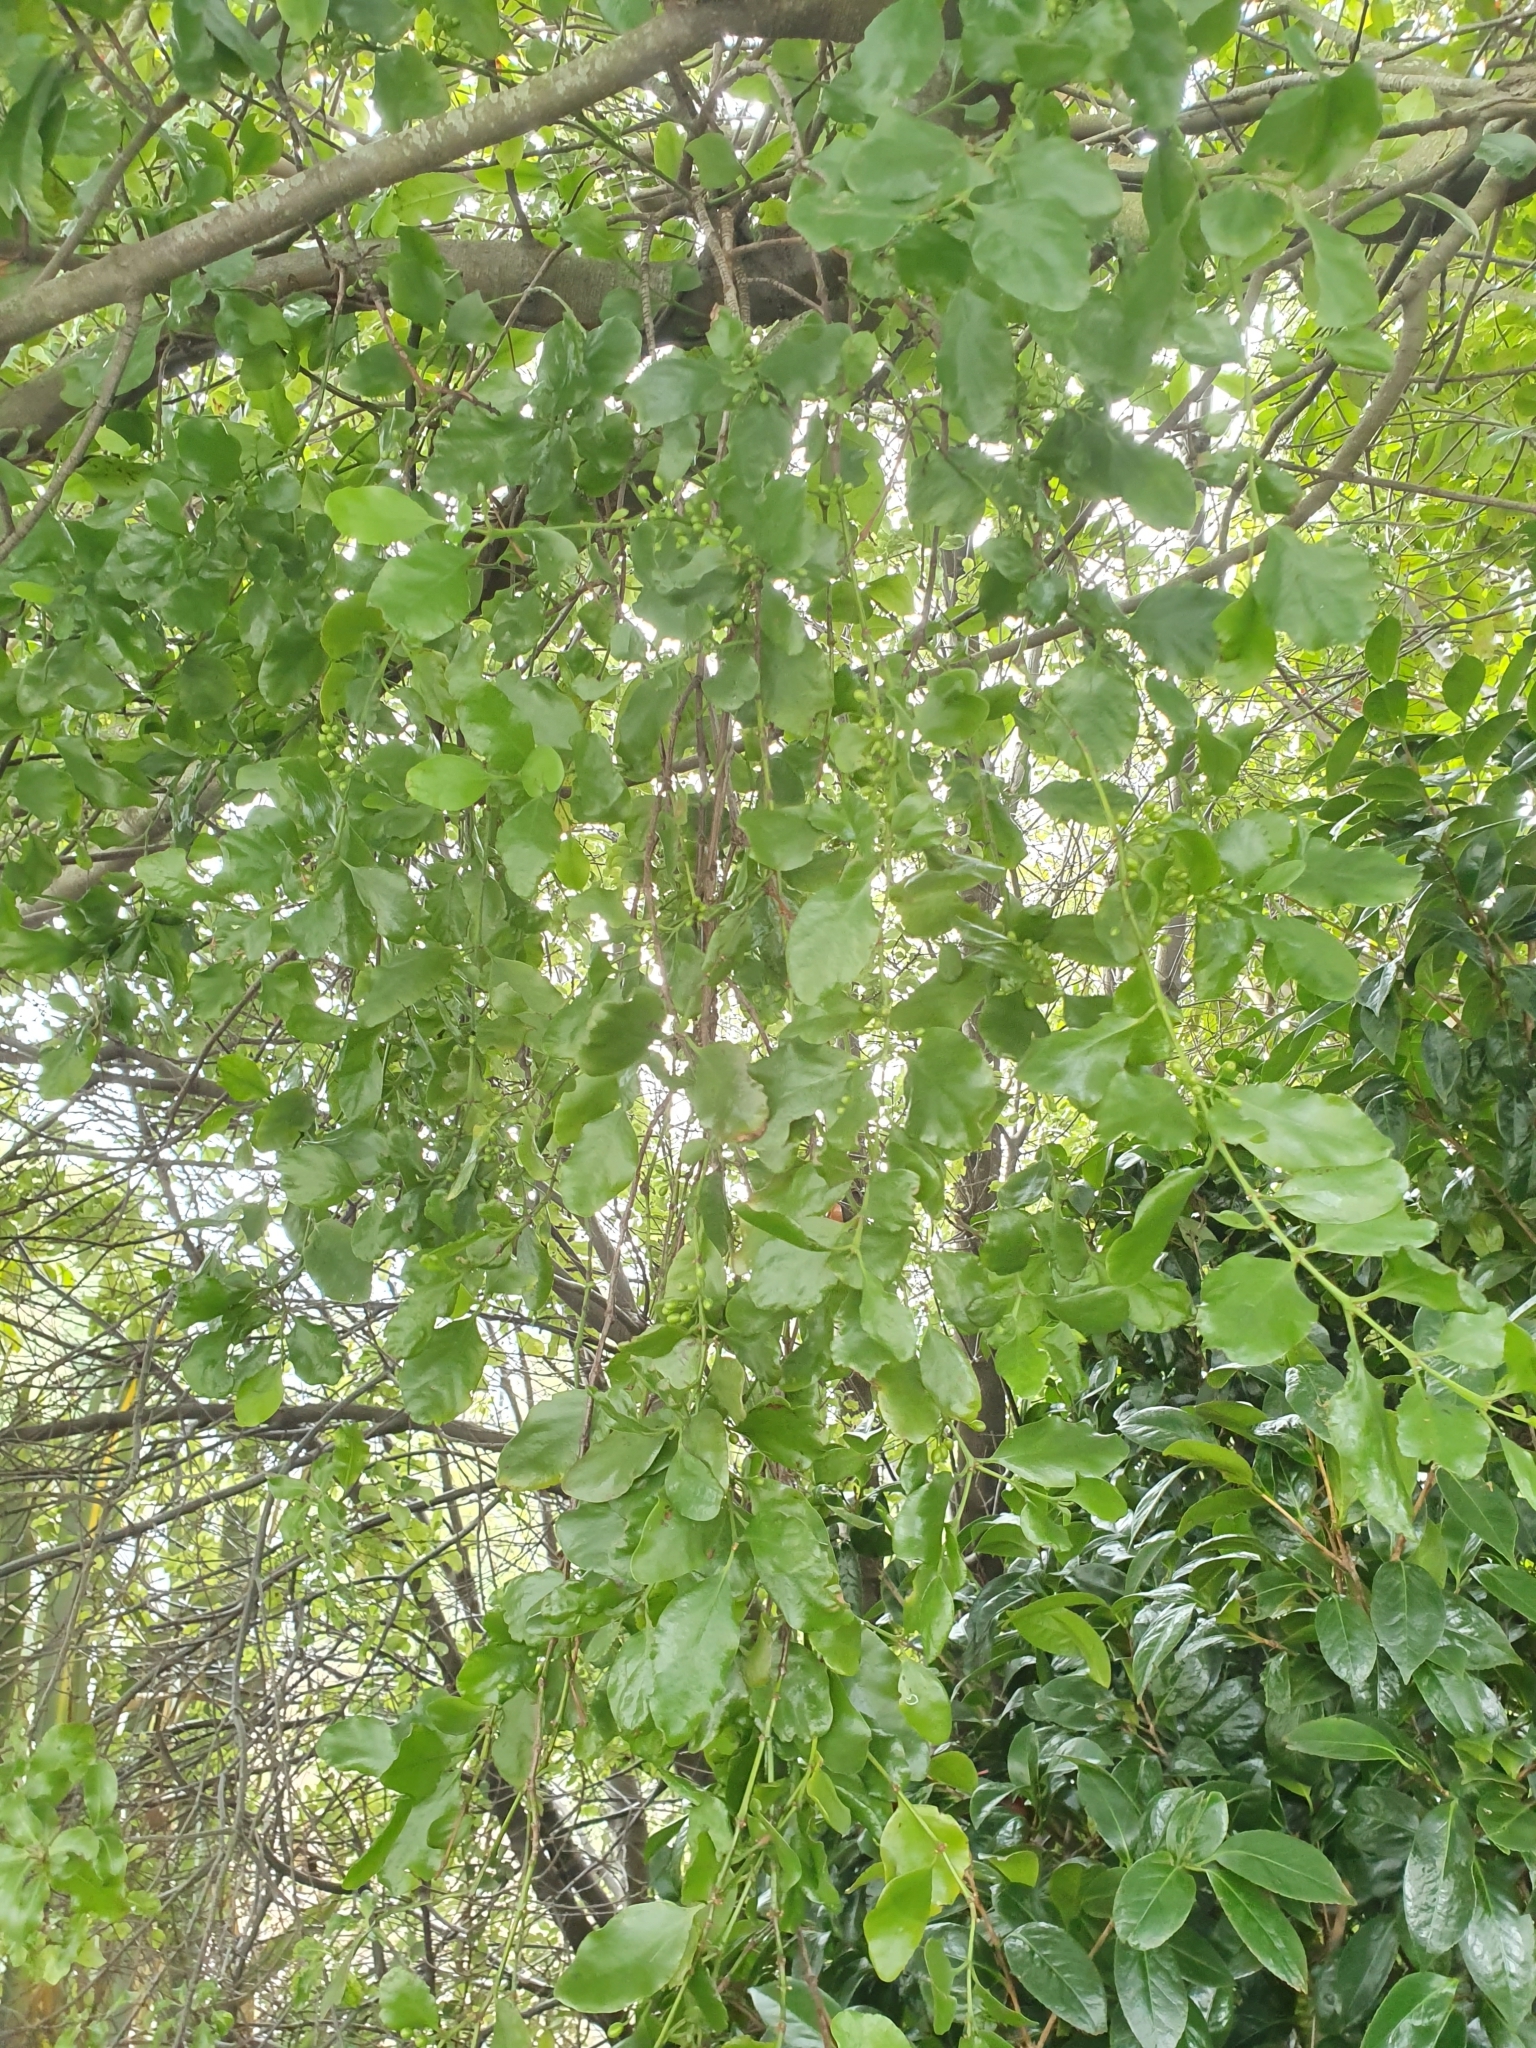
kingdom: Plantae
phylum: Tracheophyta
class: Magnoliopsida
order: Santalales
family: Loranthaceae
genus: Ileostylus
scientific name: Ileostylus micranthus
